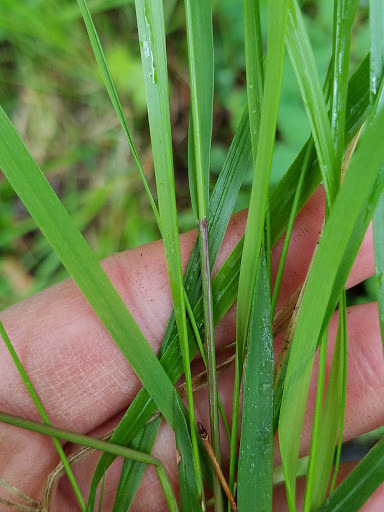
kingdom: Plantae
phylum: Tracheophyta
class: Liliopsida
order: Poales
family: Poaceae
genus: Schizachne
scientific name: Schizachne purpurascens
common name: False melic
